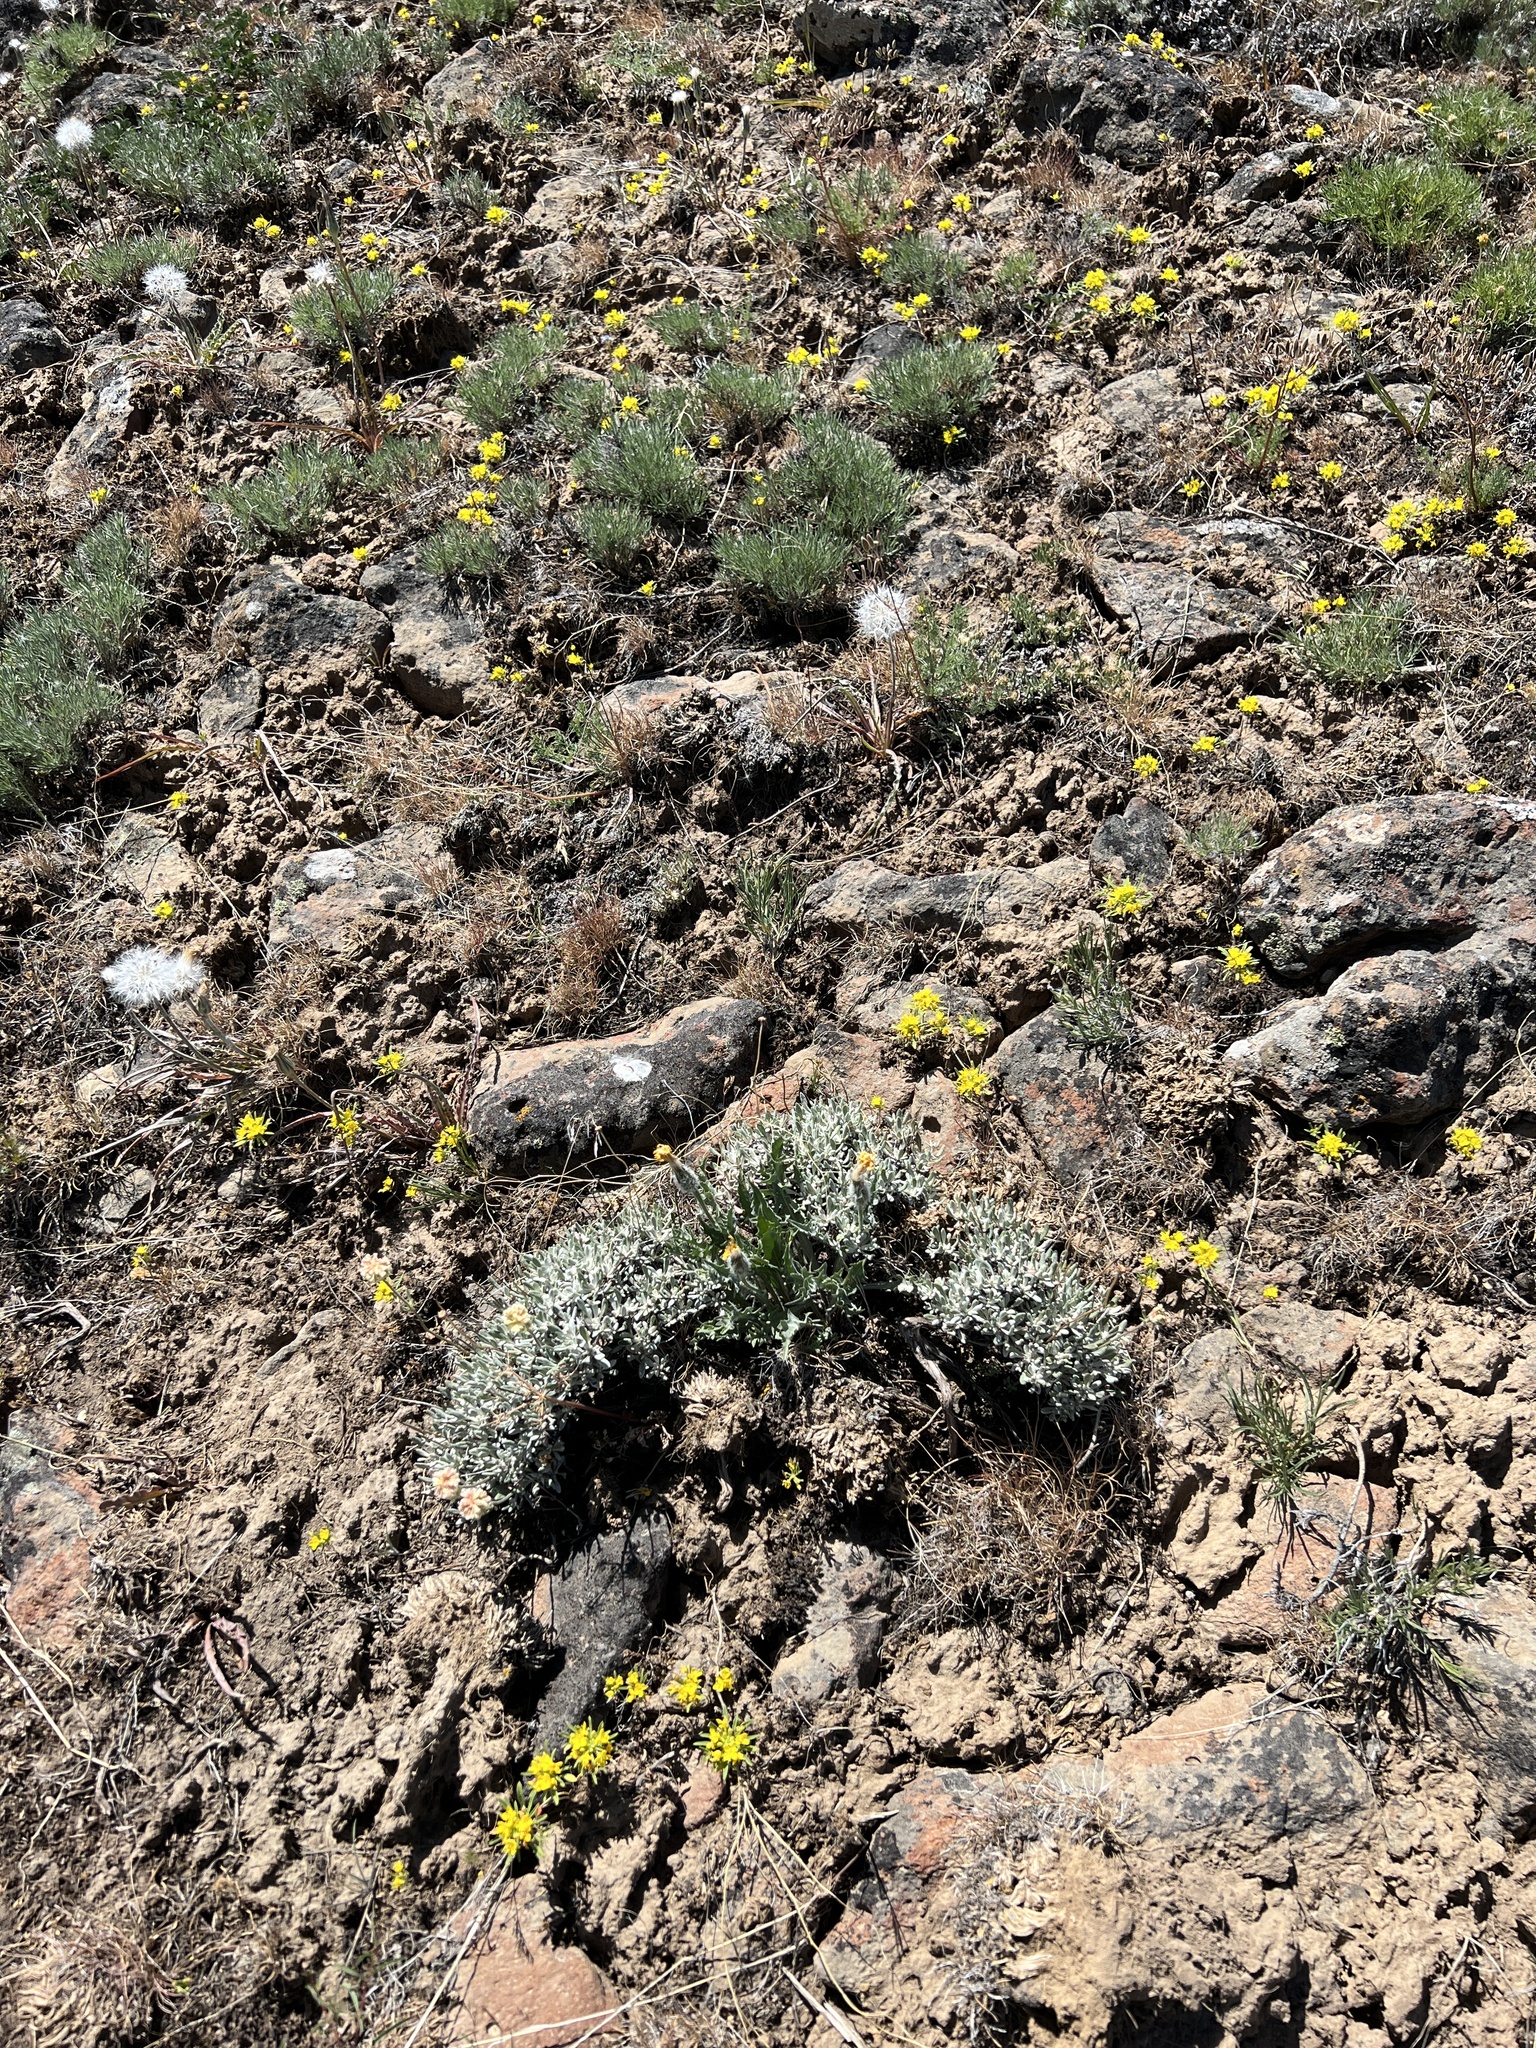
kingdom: Plantae
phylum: Tracheophyta
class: Magnoliopsida
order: Myrtales
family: Onagraceae
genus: Neoholmgrenia
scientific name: Neoholmgrenia hilgardii
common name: Hilgard's suncup
